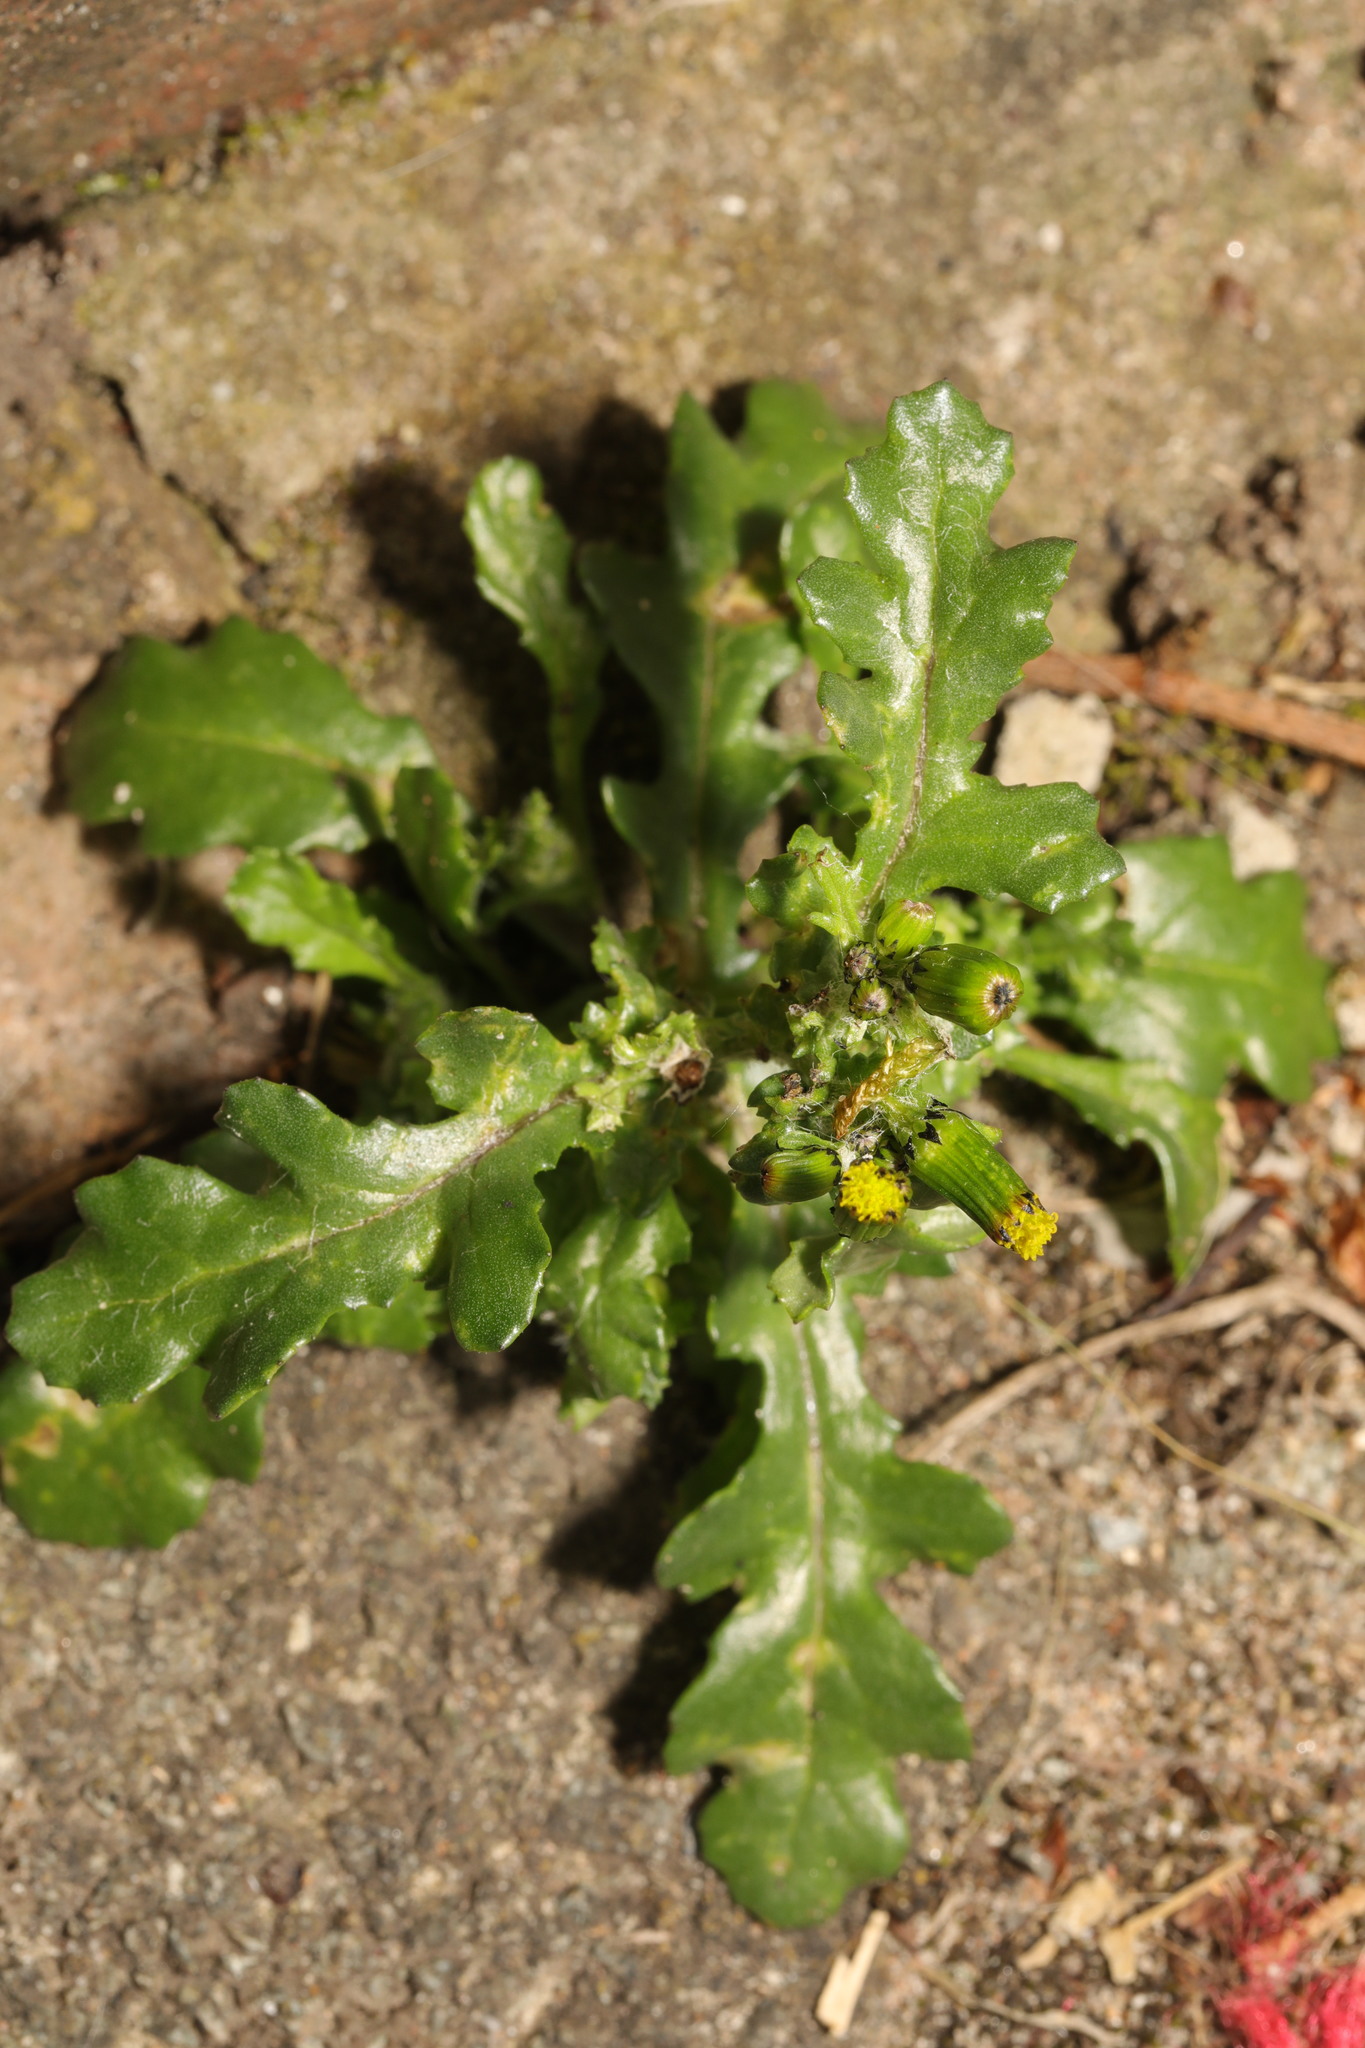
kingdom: Plantae
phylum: Tracheophyta
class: Magnoliopsida
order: Asterales
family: Asteraceae
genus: Senecio
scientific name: Senecio vulgaris
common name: Old-man-in-the-spring
